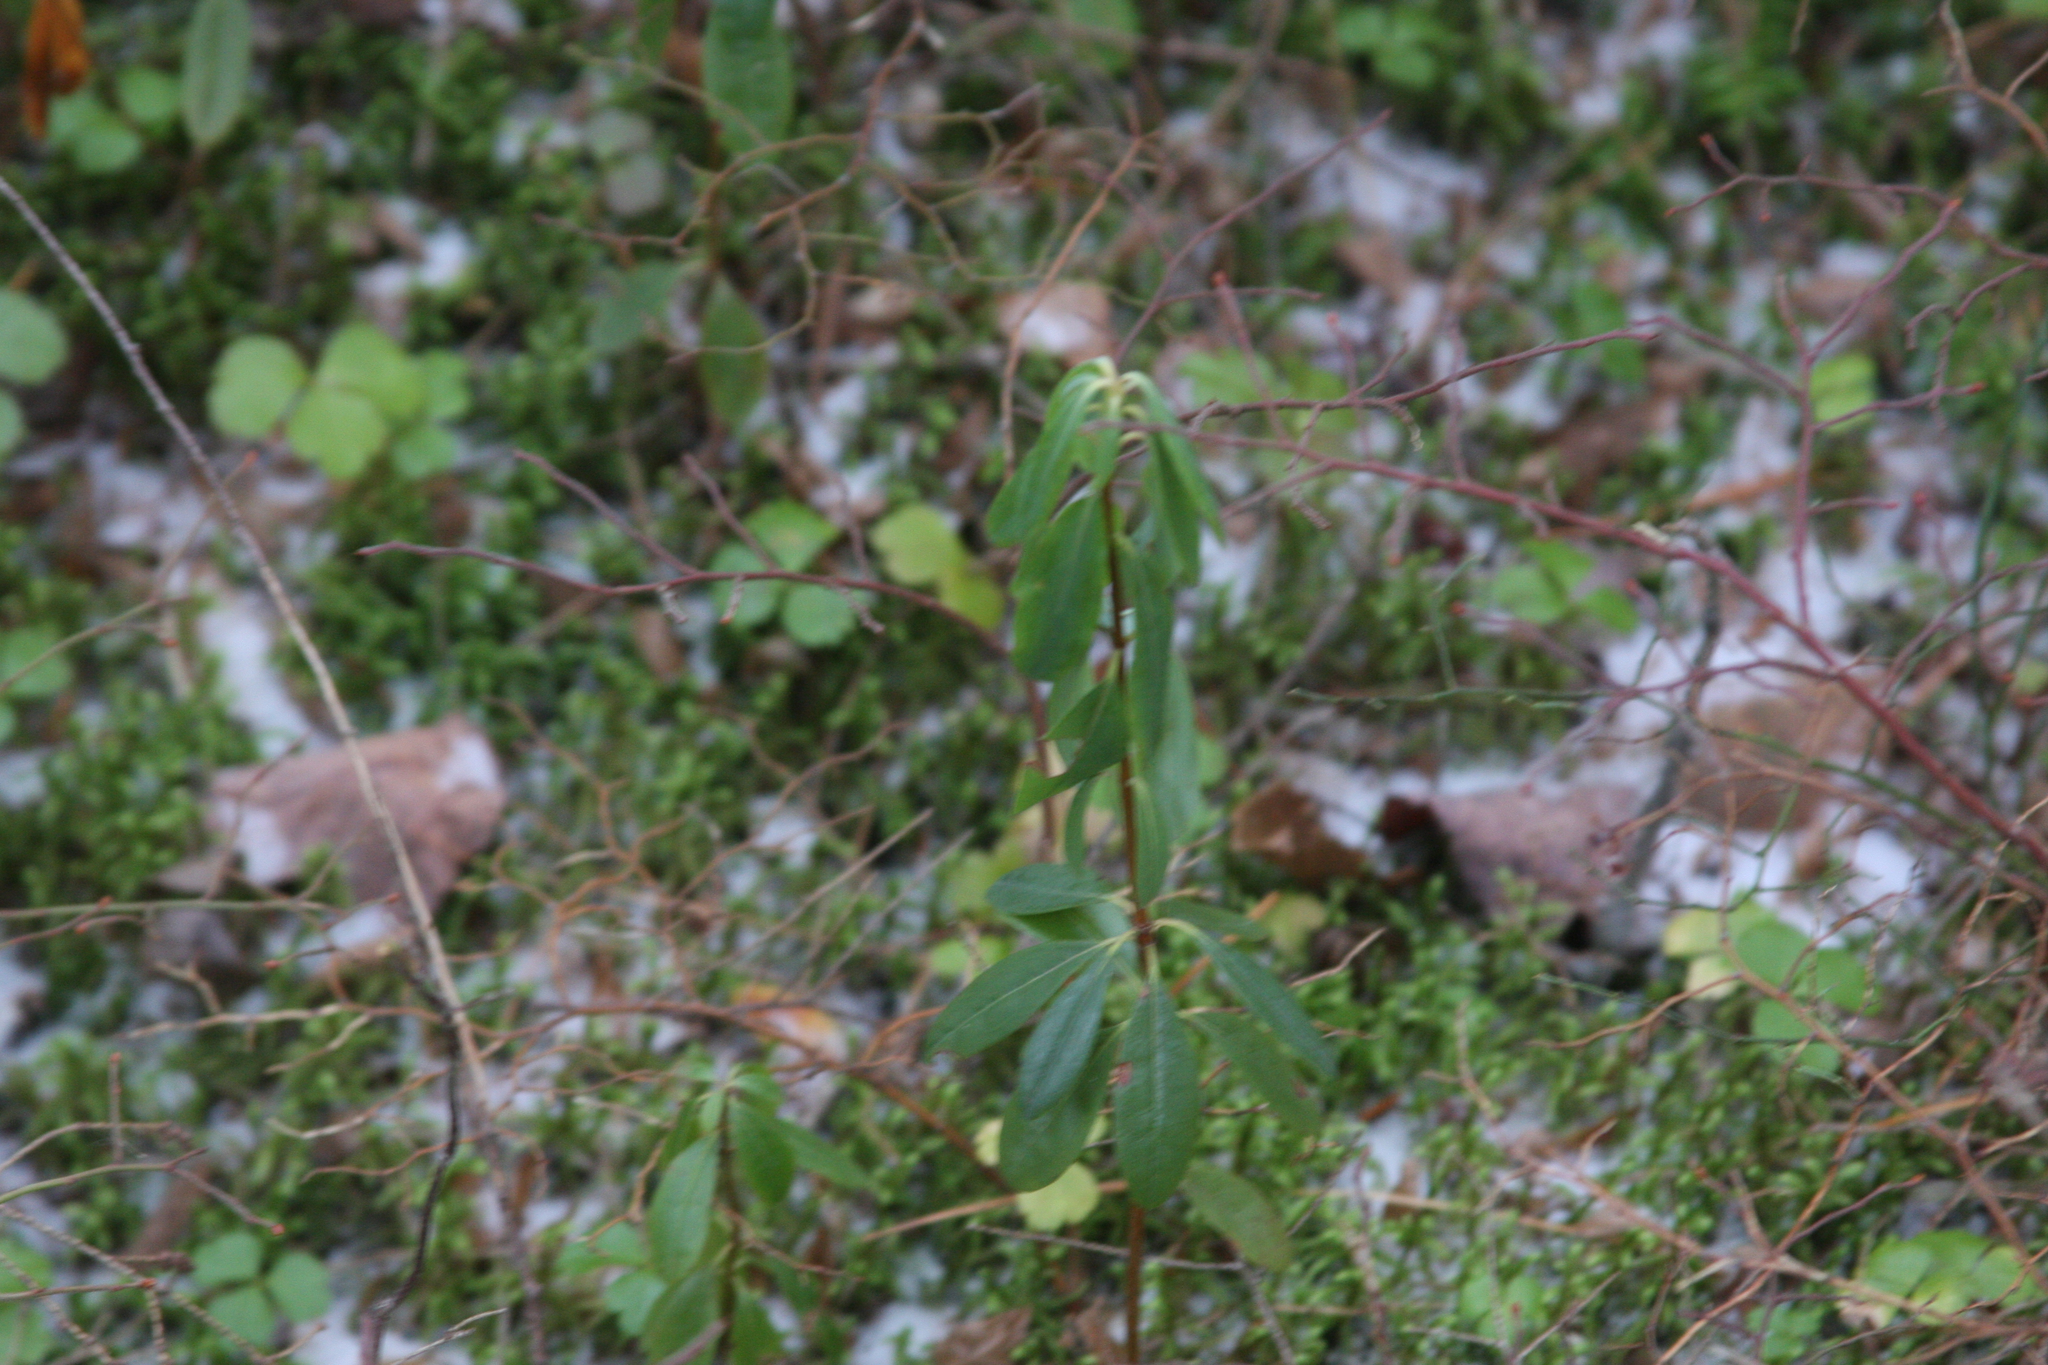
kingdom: Plantae
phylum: Tracheophyta
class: Magnoliopsida
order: Ericales
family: Ericaceae
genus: Kalmia
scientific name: Kalmia angustifolia
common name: Sheep-laurel
